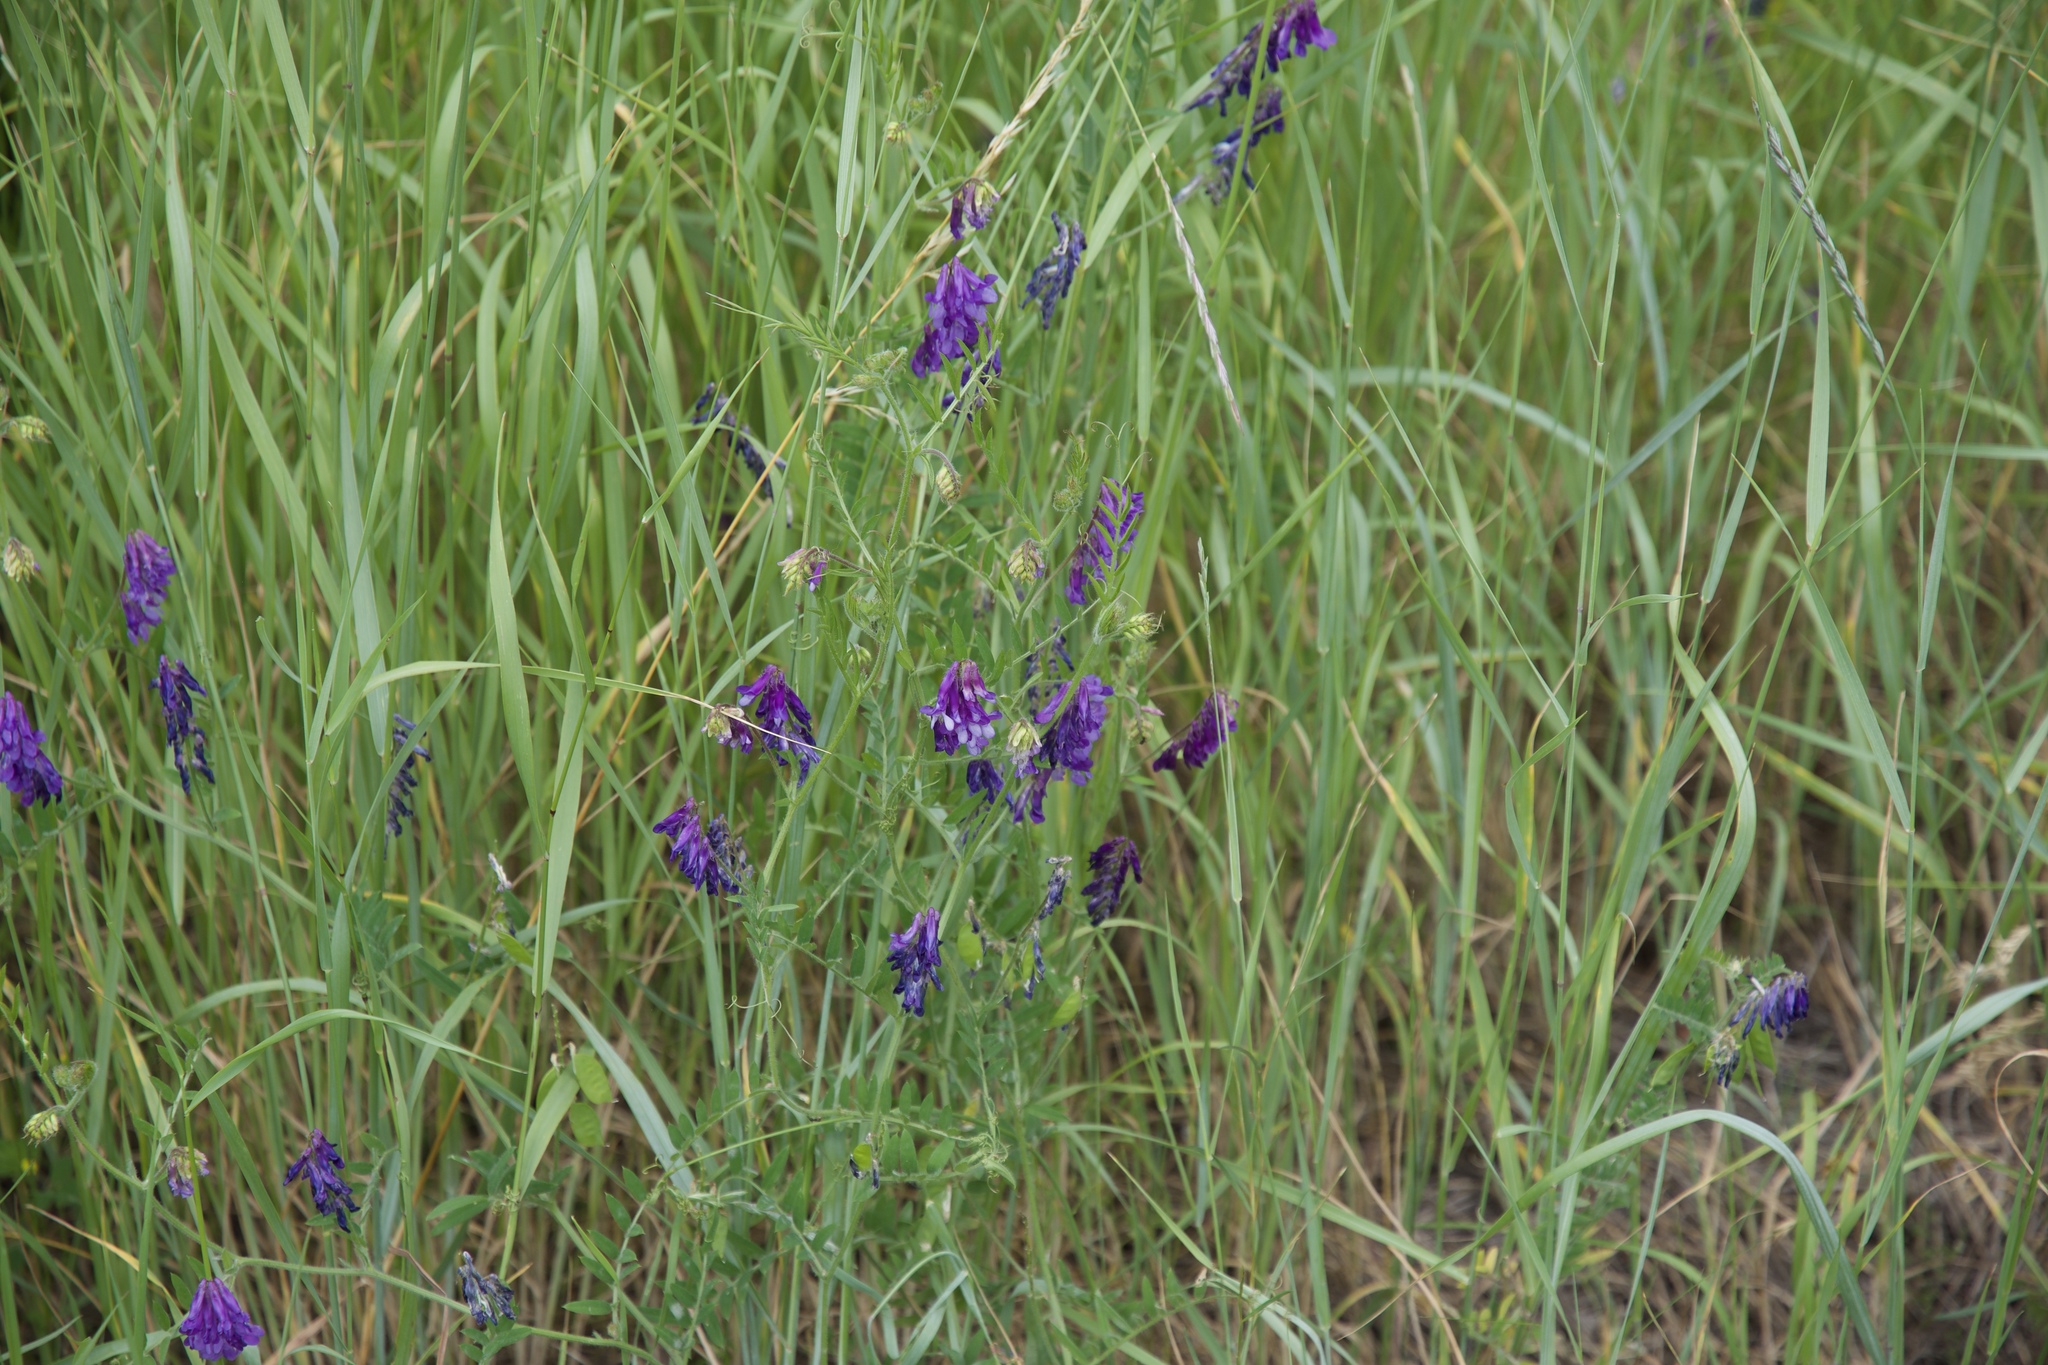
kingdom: Plantae
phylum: Tracheophyta
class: Magnoliopsida
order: Fabales
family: Fabaceae
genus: Vicia
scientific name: Vicia villosa
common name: Fodder vetch
